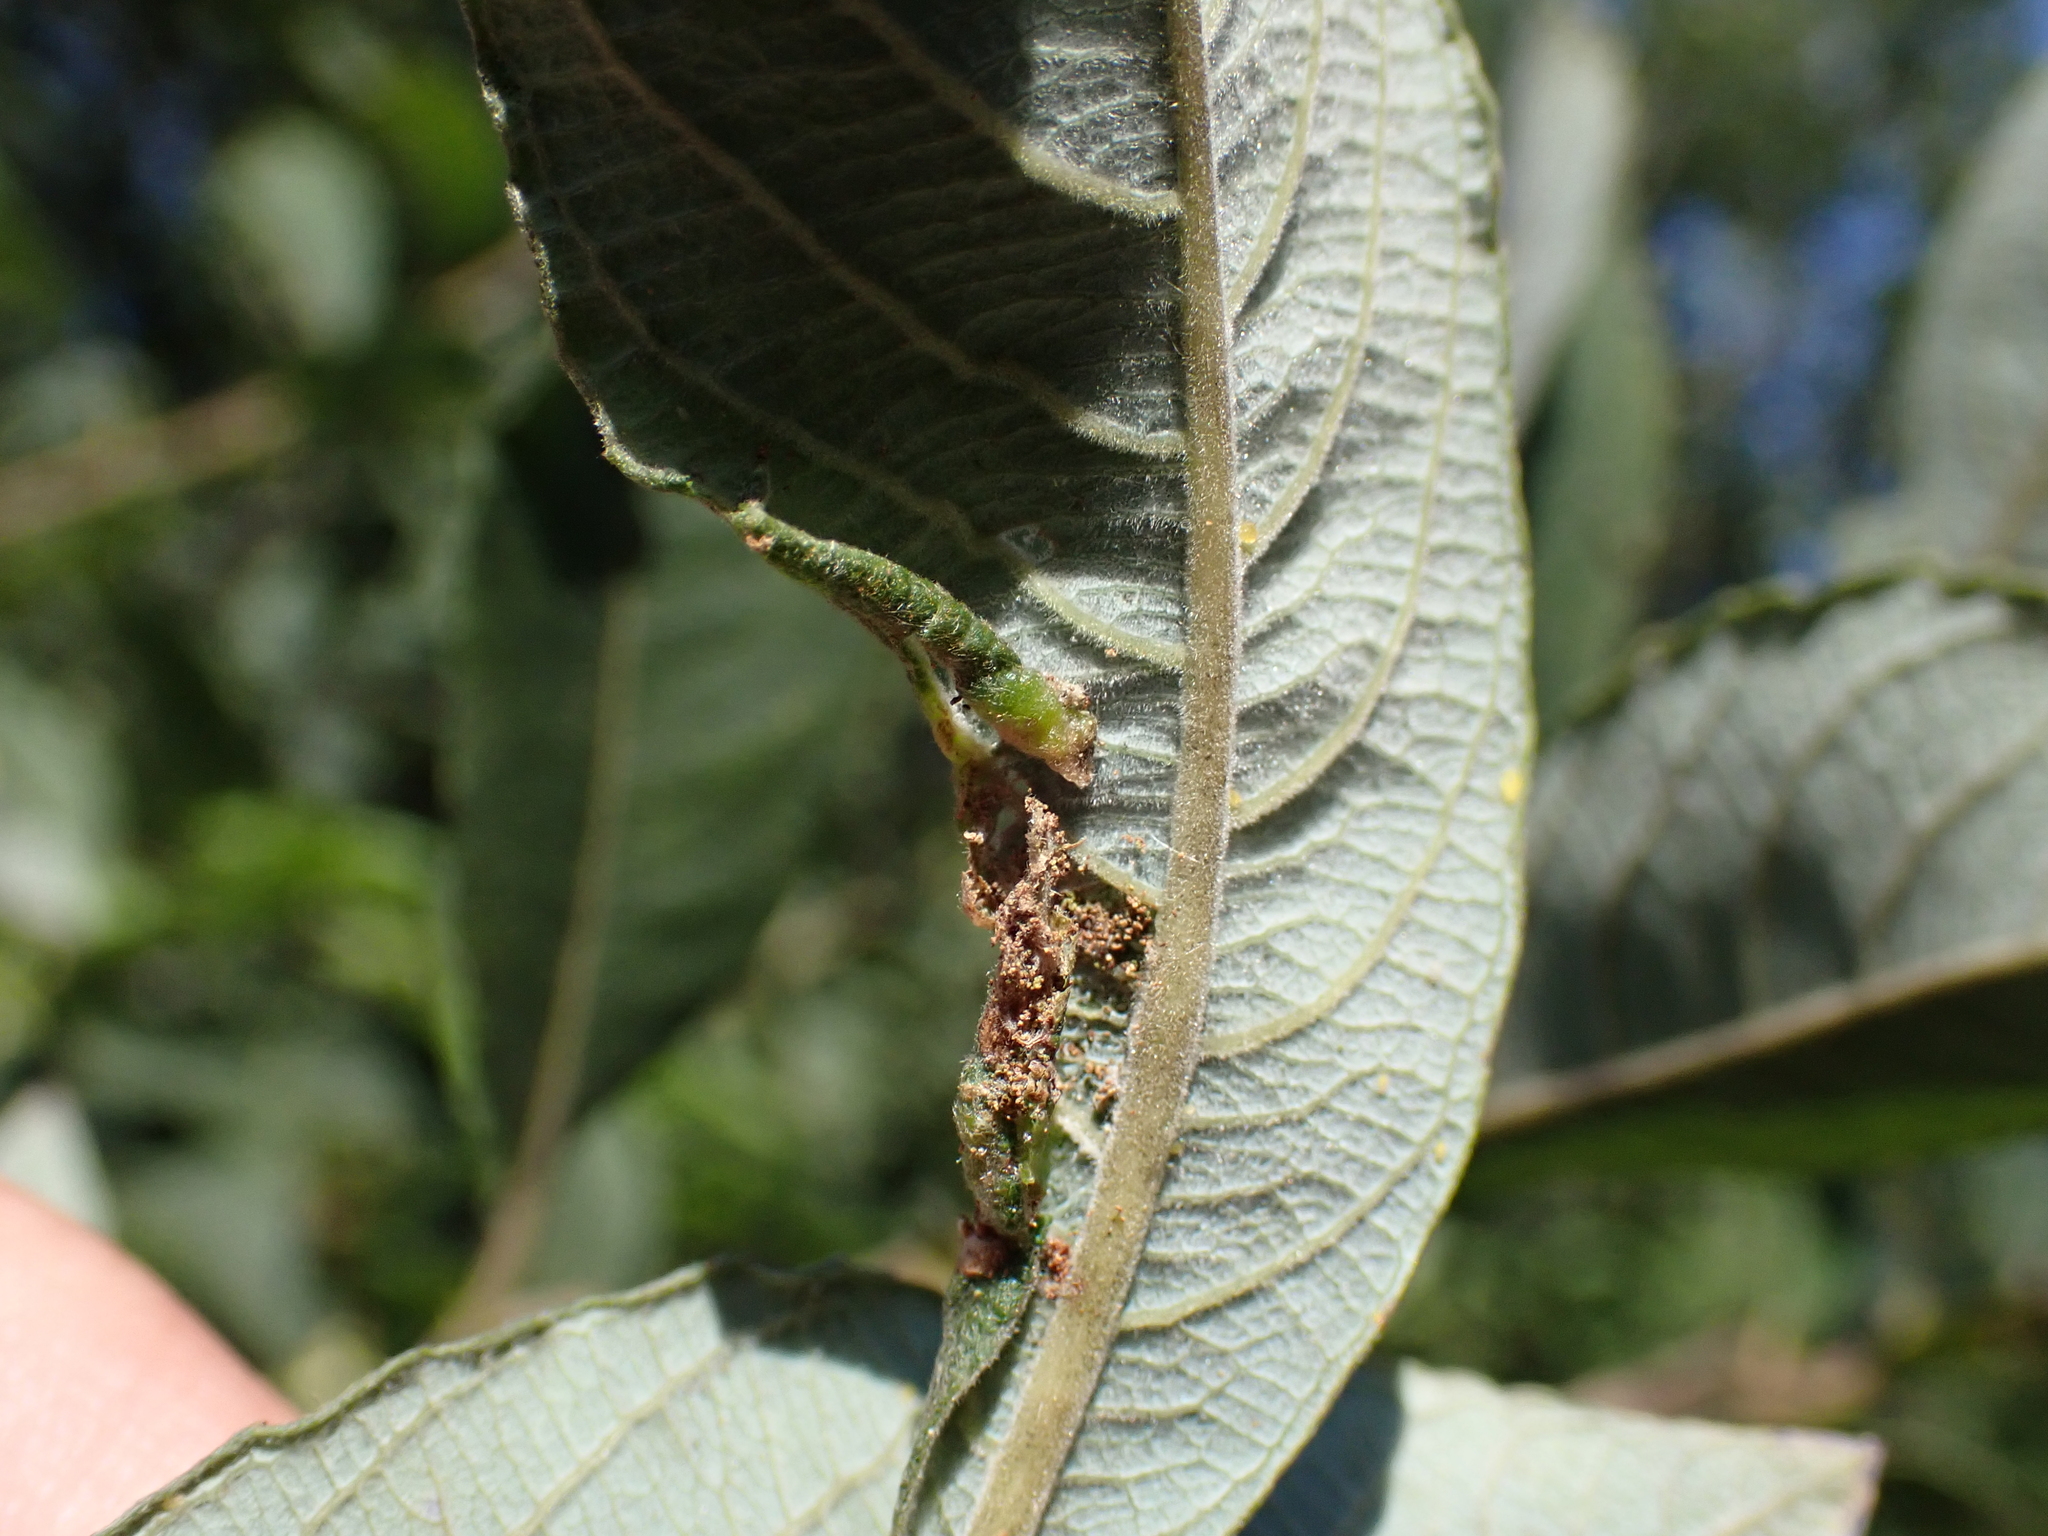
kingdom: Animalia
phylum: Arthropoda
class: Insecta
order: Hymenoptera
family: Tenthredinidae
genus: Phyllocolpa
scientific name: Phyllocolpa prussica
